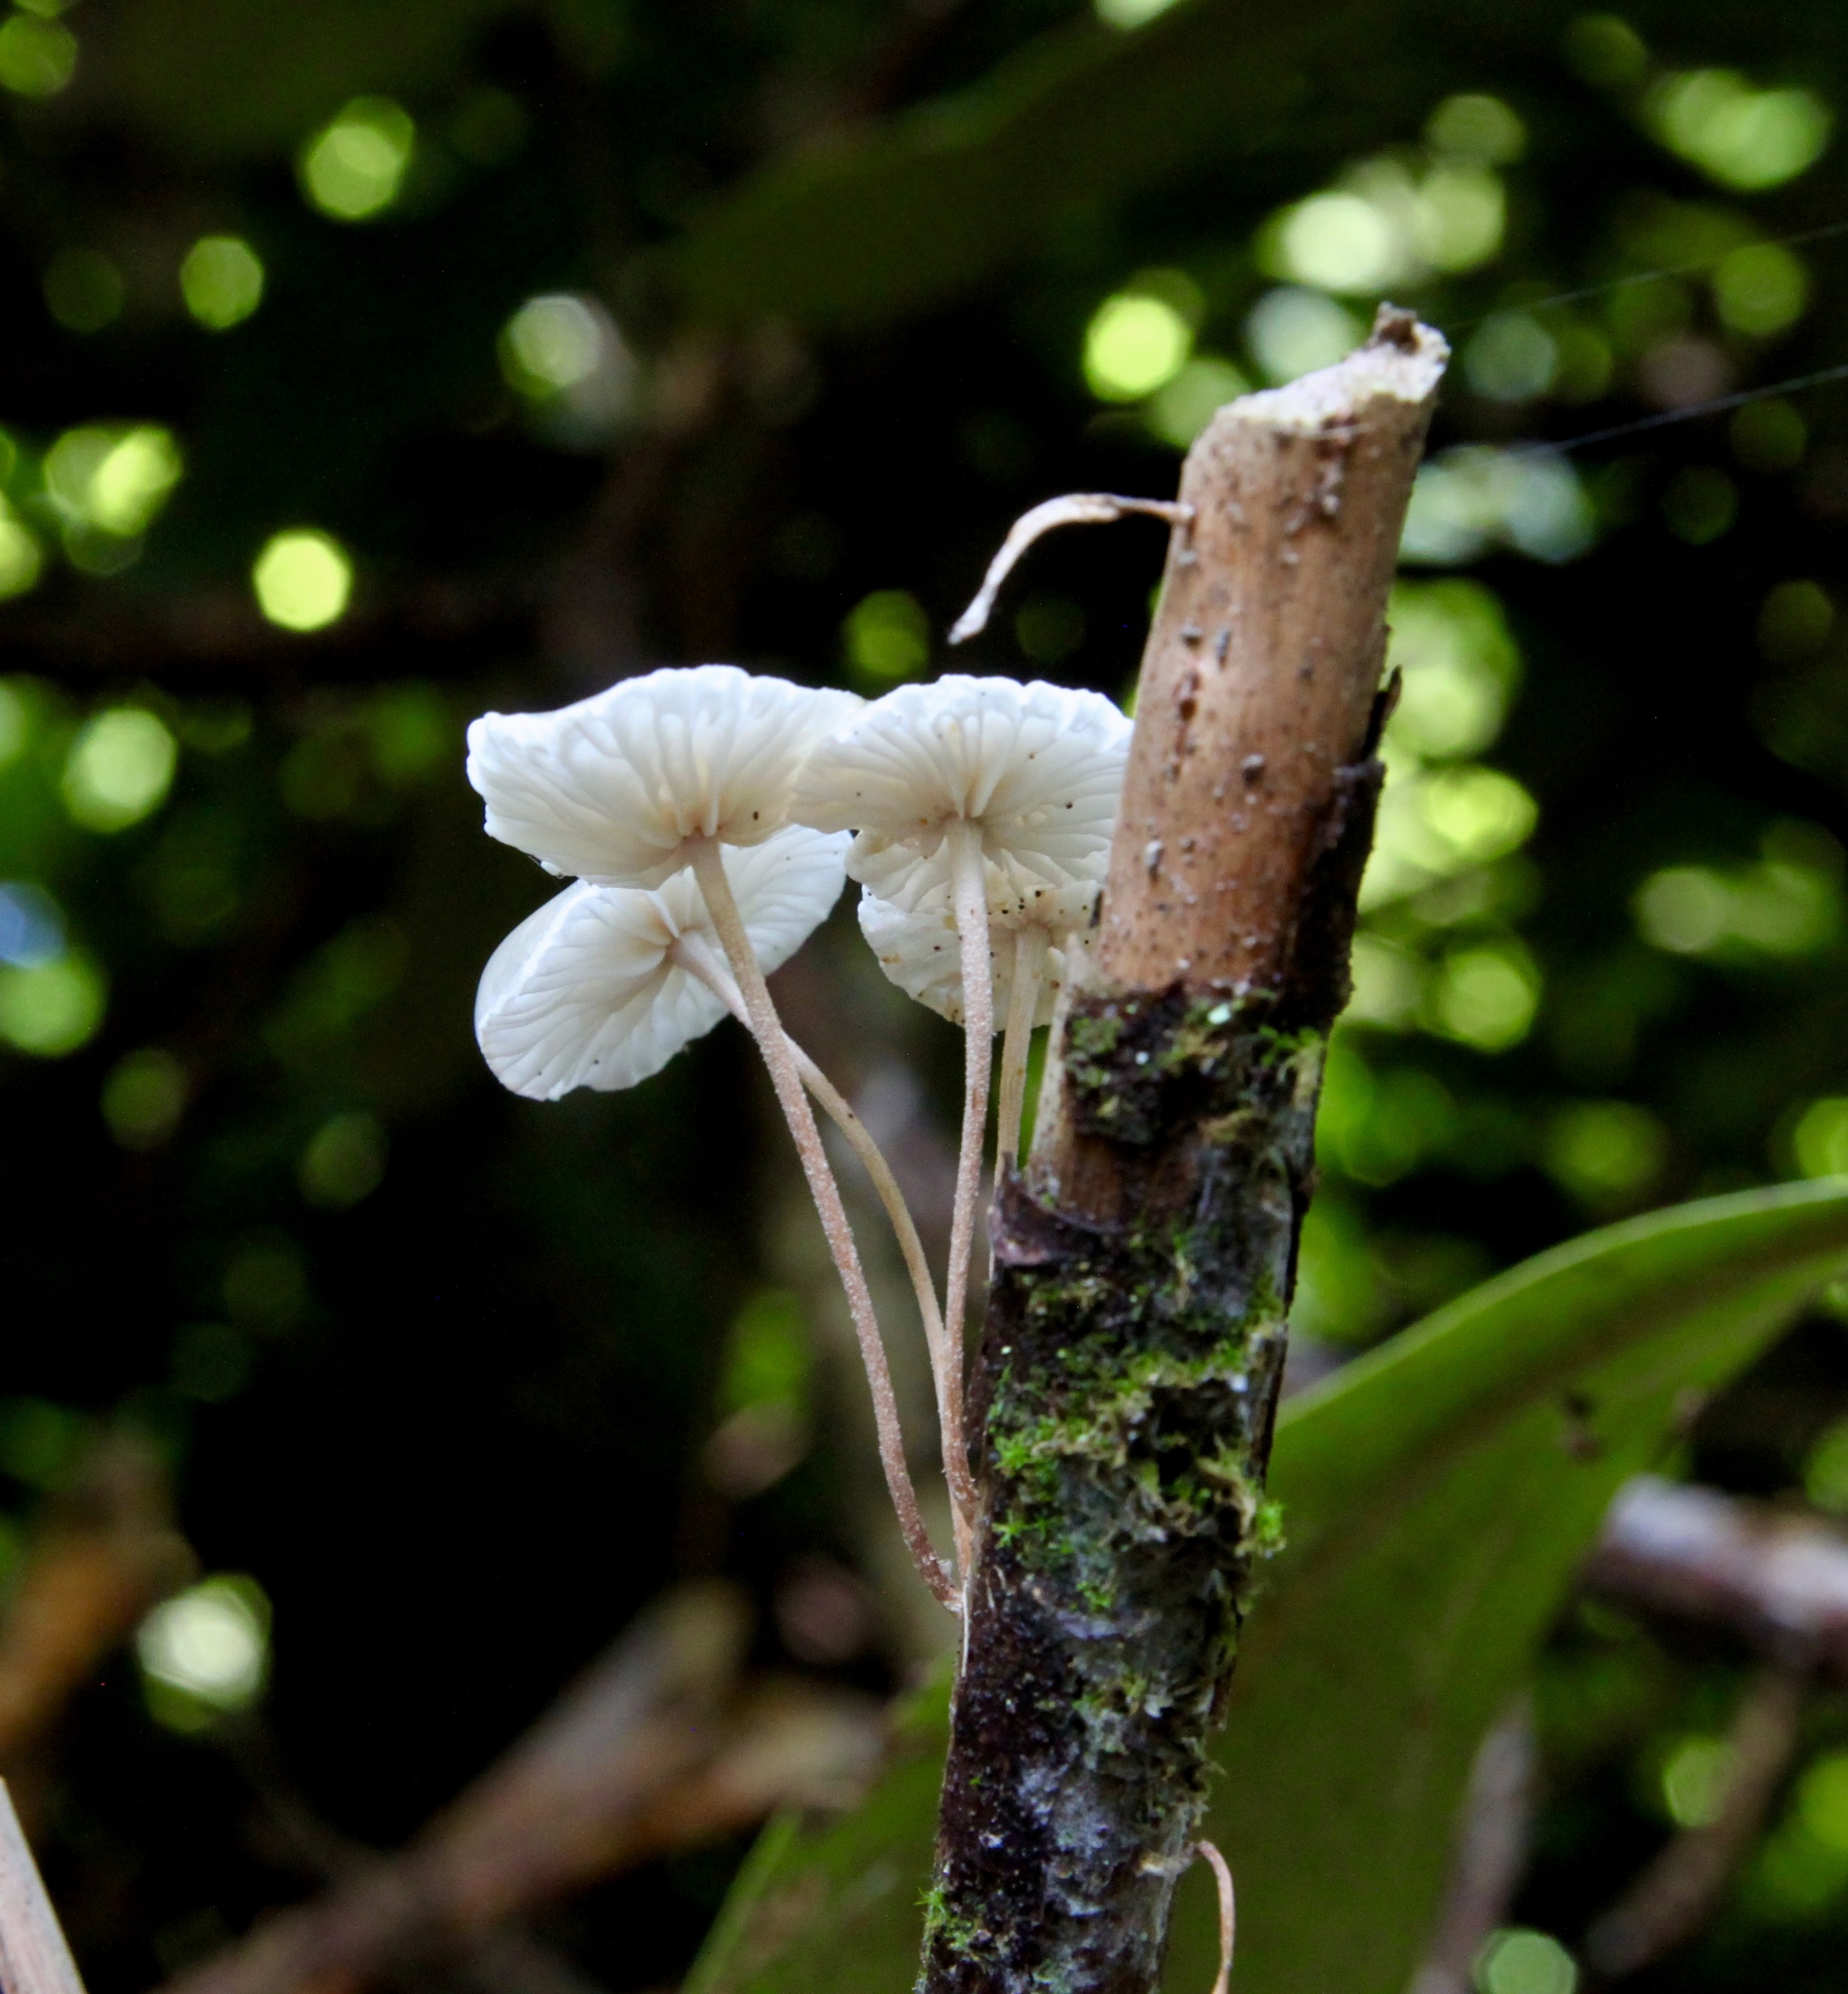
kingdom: Fungi
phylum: Basidiomycota
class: Agaricomycetes
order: Agaricales
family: Omphalotaceae
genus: Mycetinis
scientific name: Mycetinis opacus
